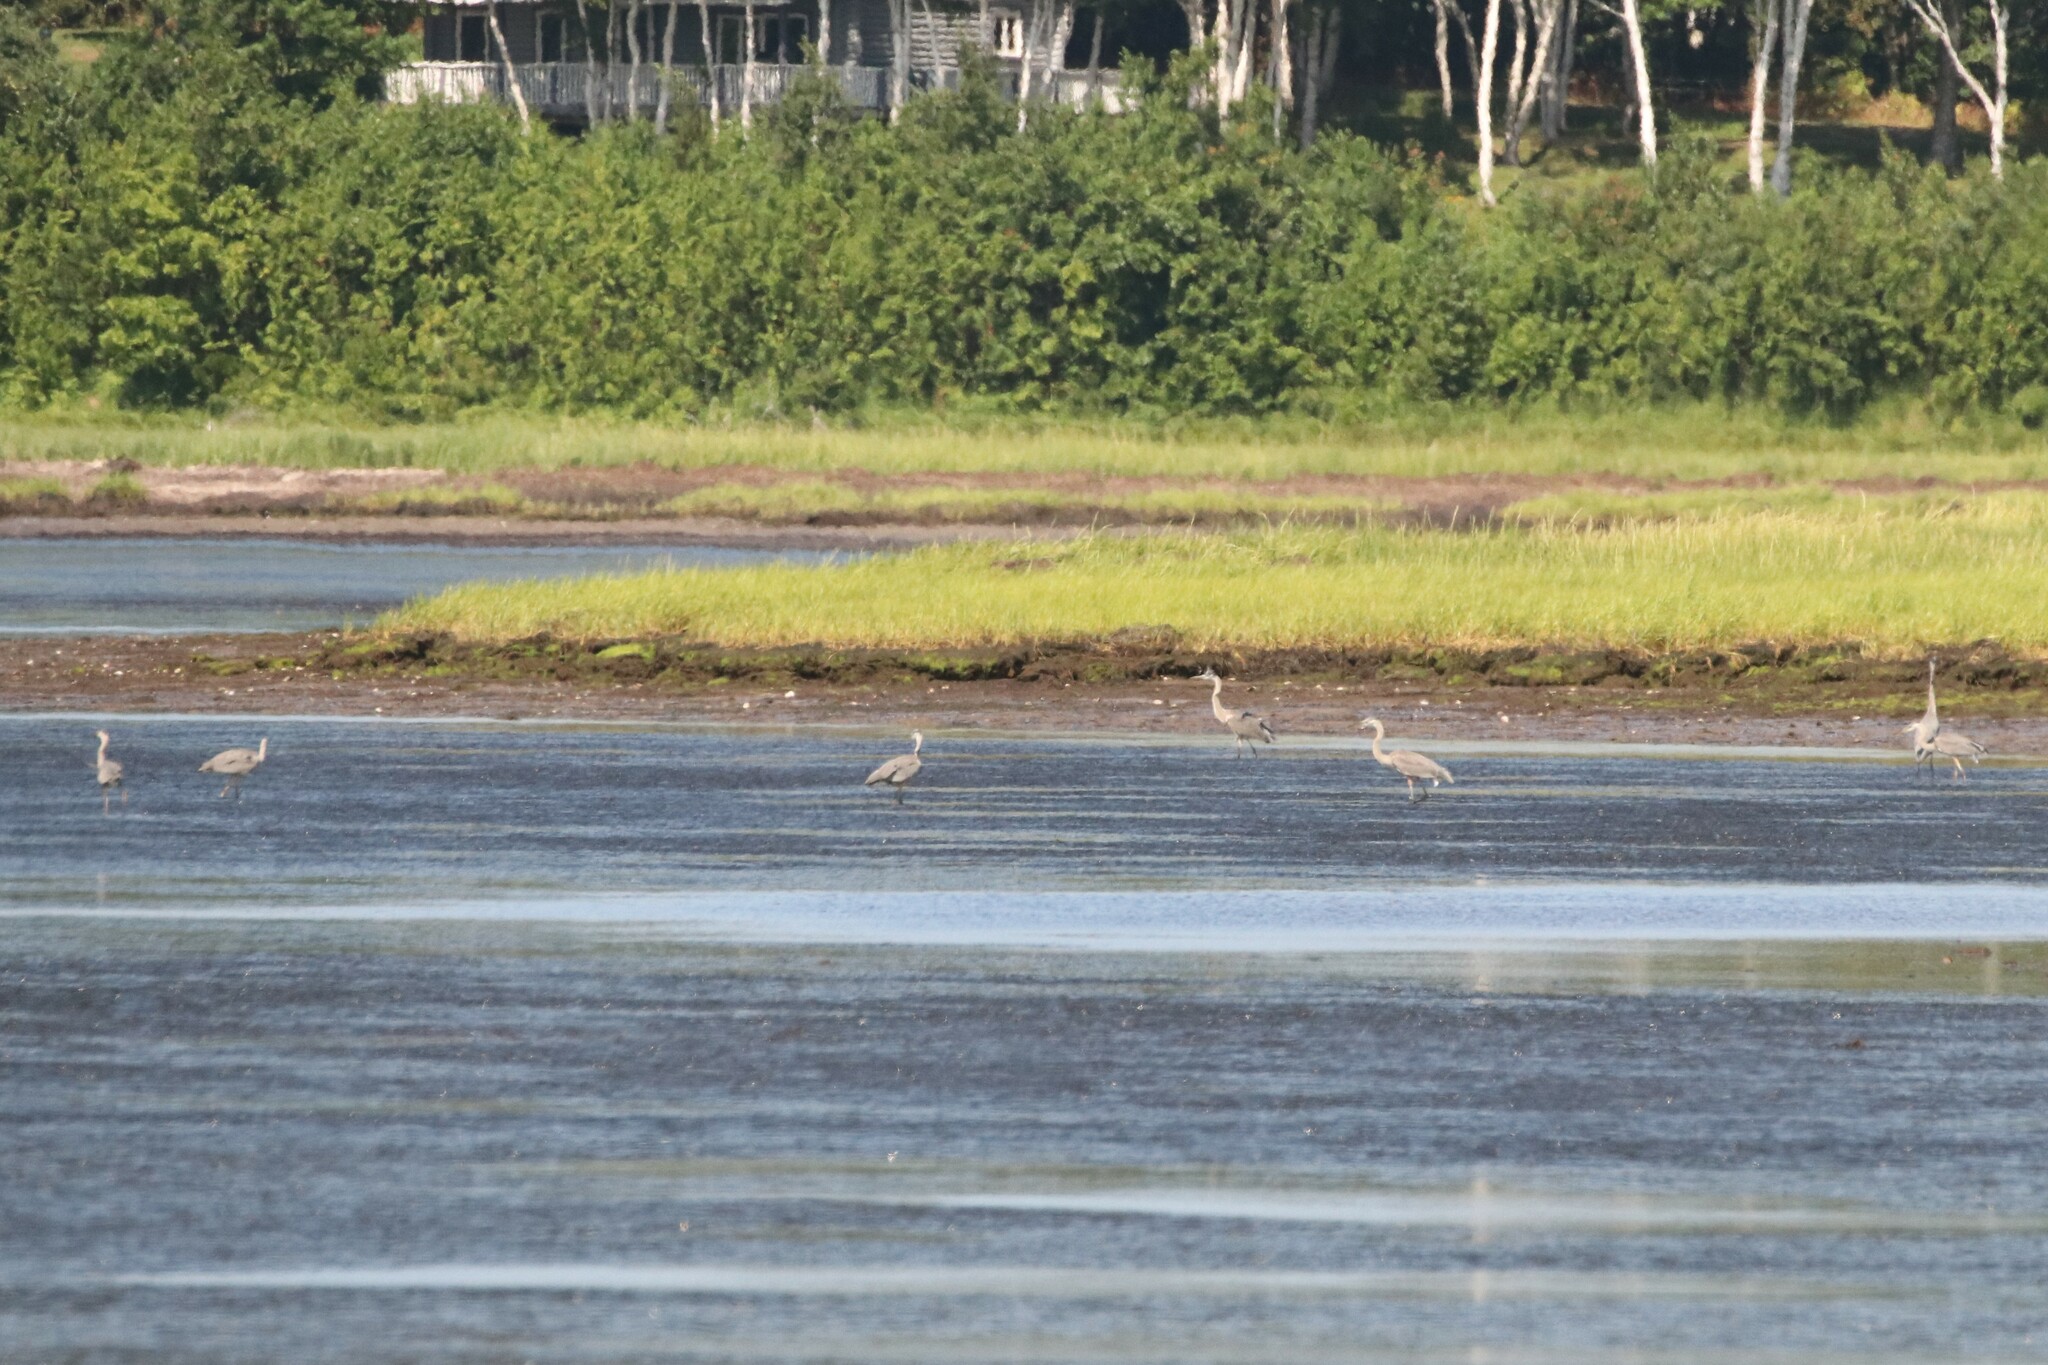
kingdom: Animalia
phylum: Chordata
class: Aves
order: Pelecaniformes
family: Ardeidae
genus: Ardea
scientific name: Ardea herodias
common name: Great blue heron
